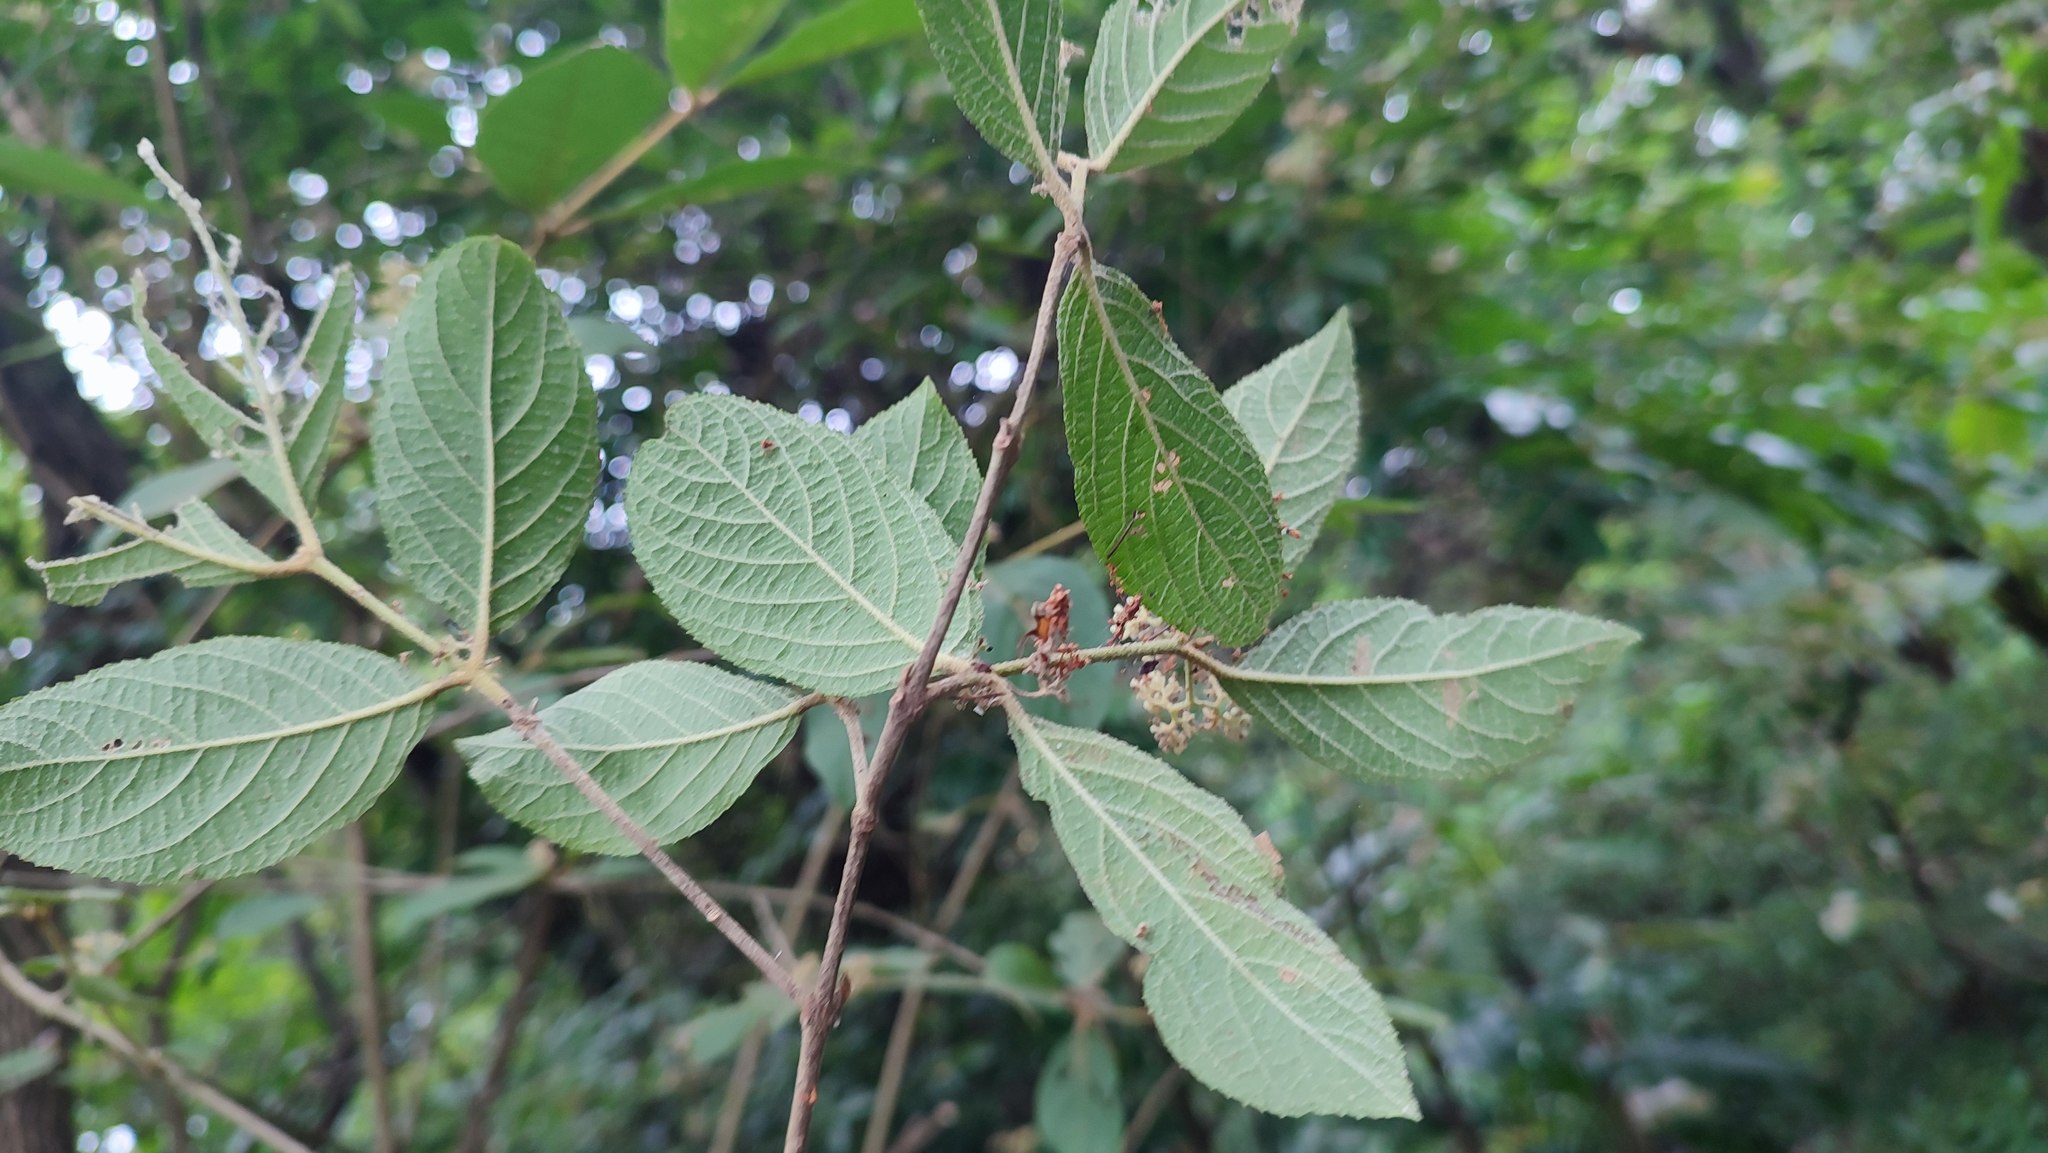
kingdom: Plantae
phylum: Tracheophyta
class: Magnoliopsida
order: Lamiales
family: Lamiaceae
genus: Callicarpa
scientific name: Callicarpa pedunculata
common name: Velvetleaf
